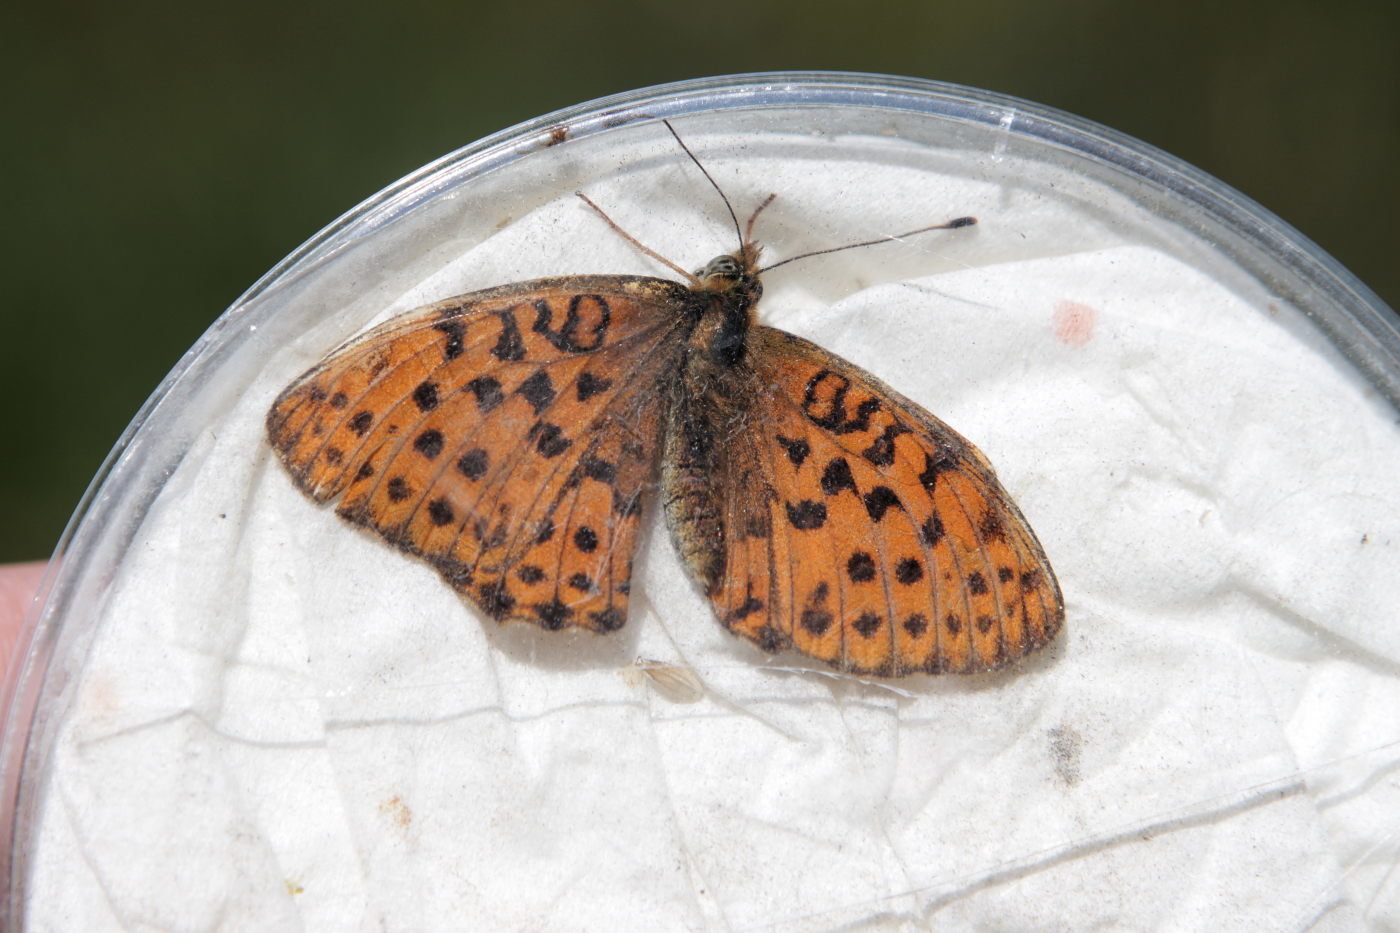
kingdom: Animalia
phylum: Arthropoda
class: Insecta
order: Lepidoptera
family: Nymphalidae
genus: Brenthis
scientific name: Brenthis daphne
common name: Marbled fritillary
